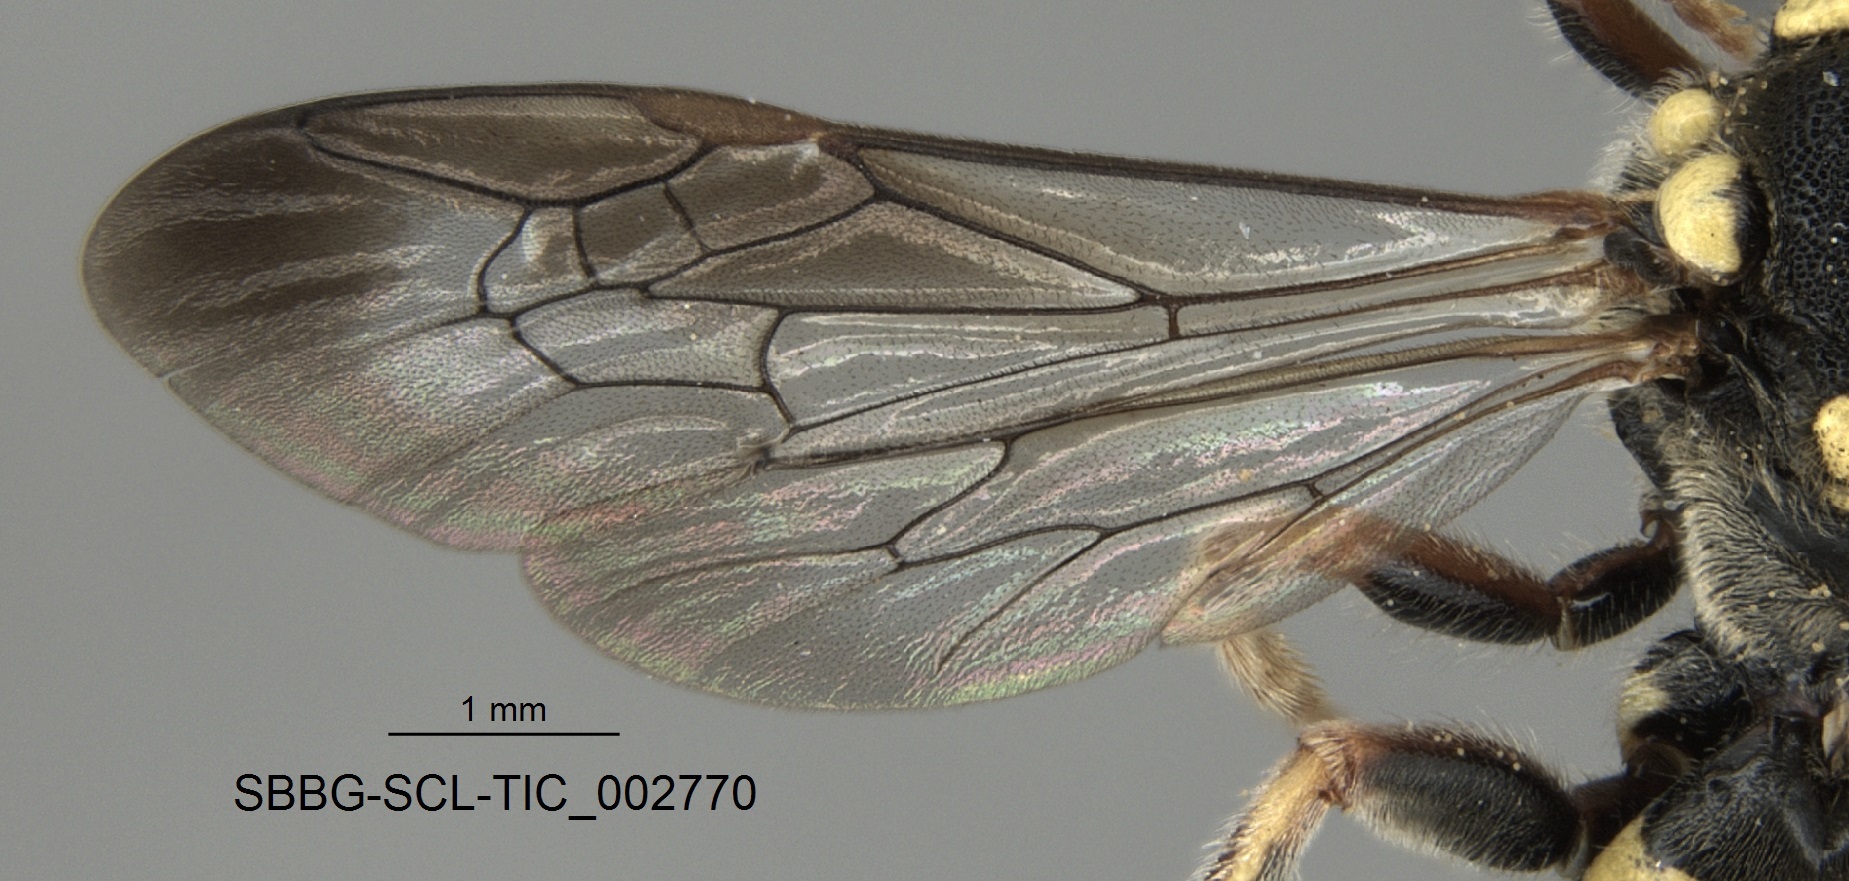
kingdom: Animalia
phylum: Arthropoda
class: Insecta
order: Hymenoptera
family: Apidae
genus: Nomada
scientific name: Nomada
